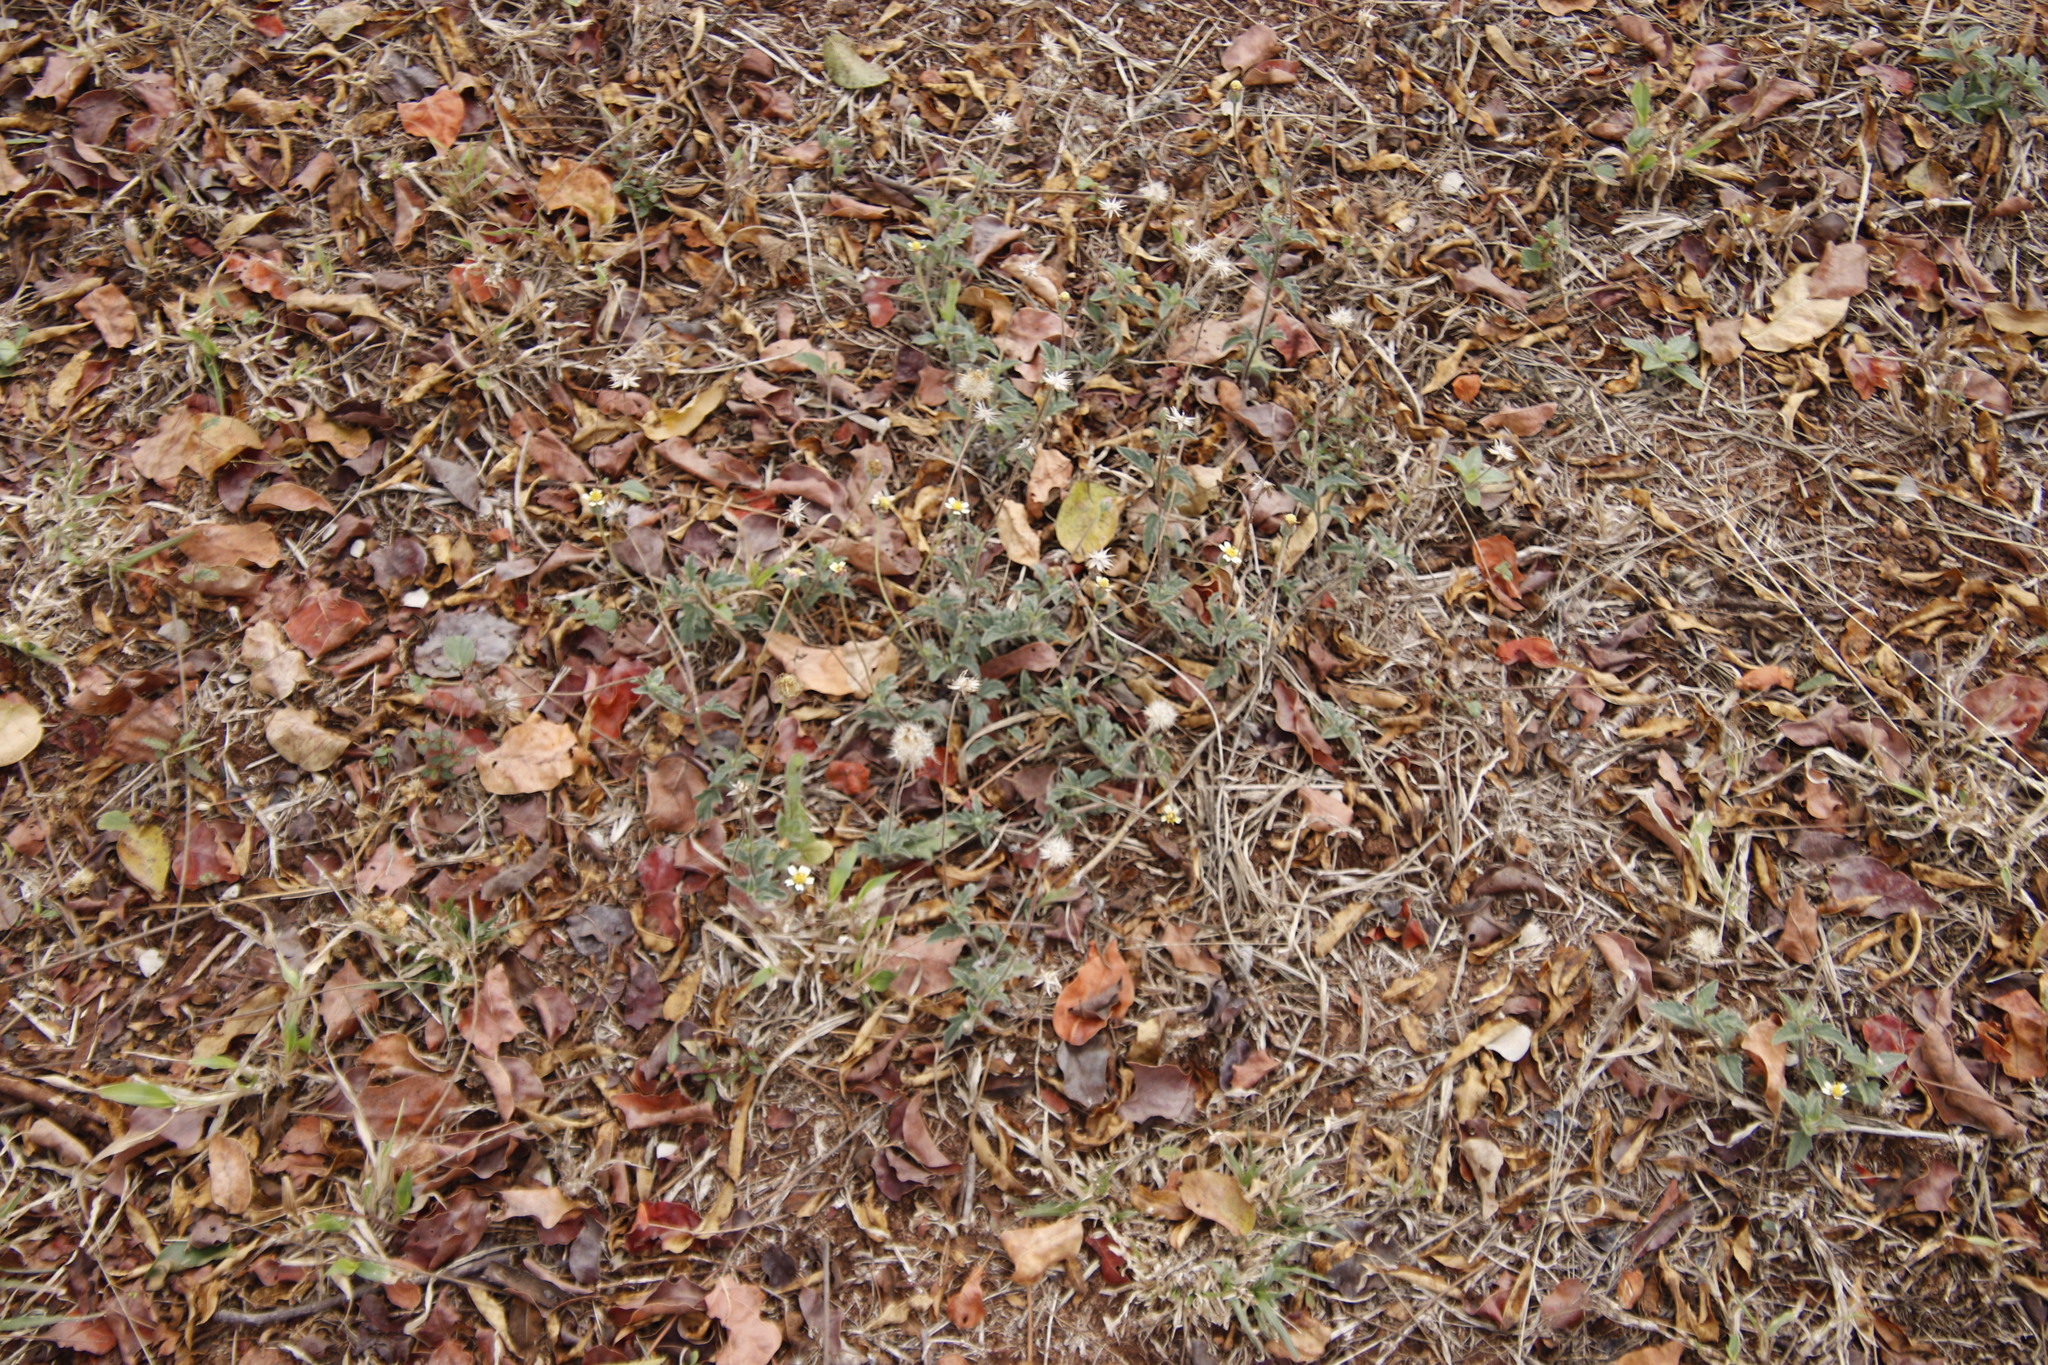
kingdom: Plantae
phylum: Tracheophyta
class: Magnoliopsida
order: Asterales
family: Asteraceae
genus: Tridax
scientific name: Tridax procumbens
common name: Coatbuttons
